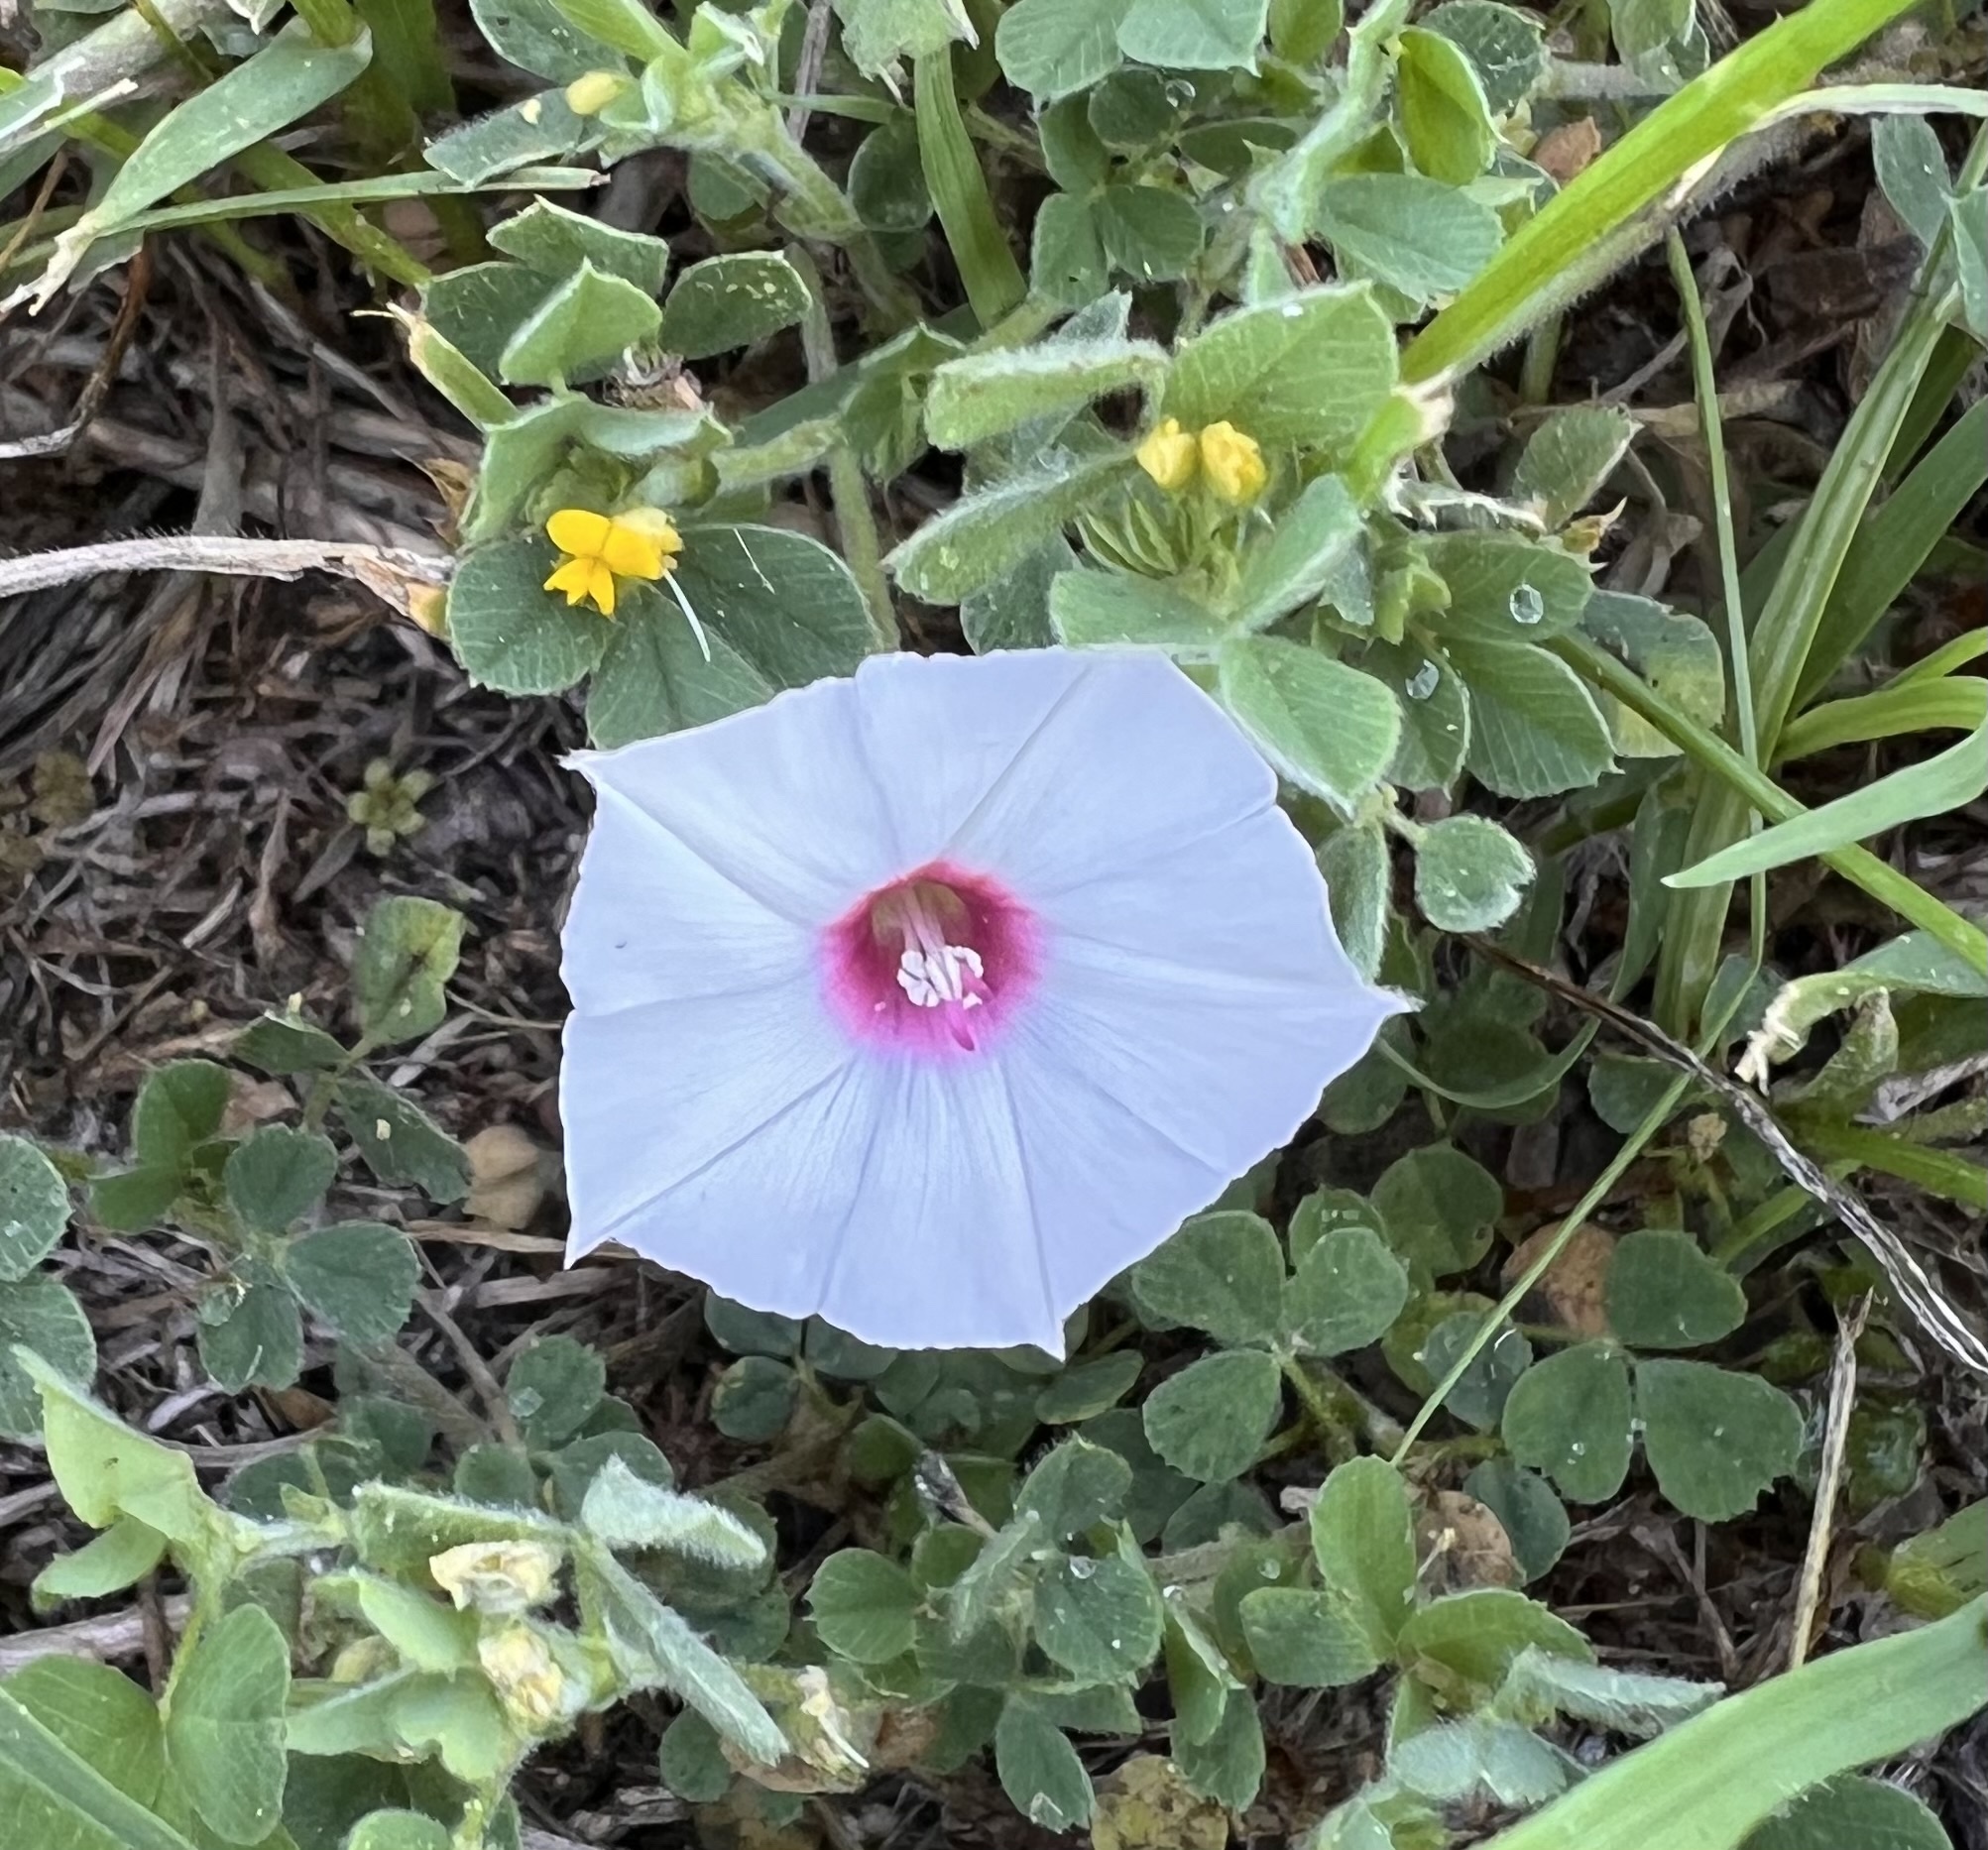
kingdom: Plantae
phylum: Tracheophyta
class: Magnoliopsida
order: Solanales
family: Convolvulaceae
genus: Convolvulus
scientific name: Convolvulus equitans
